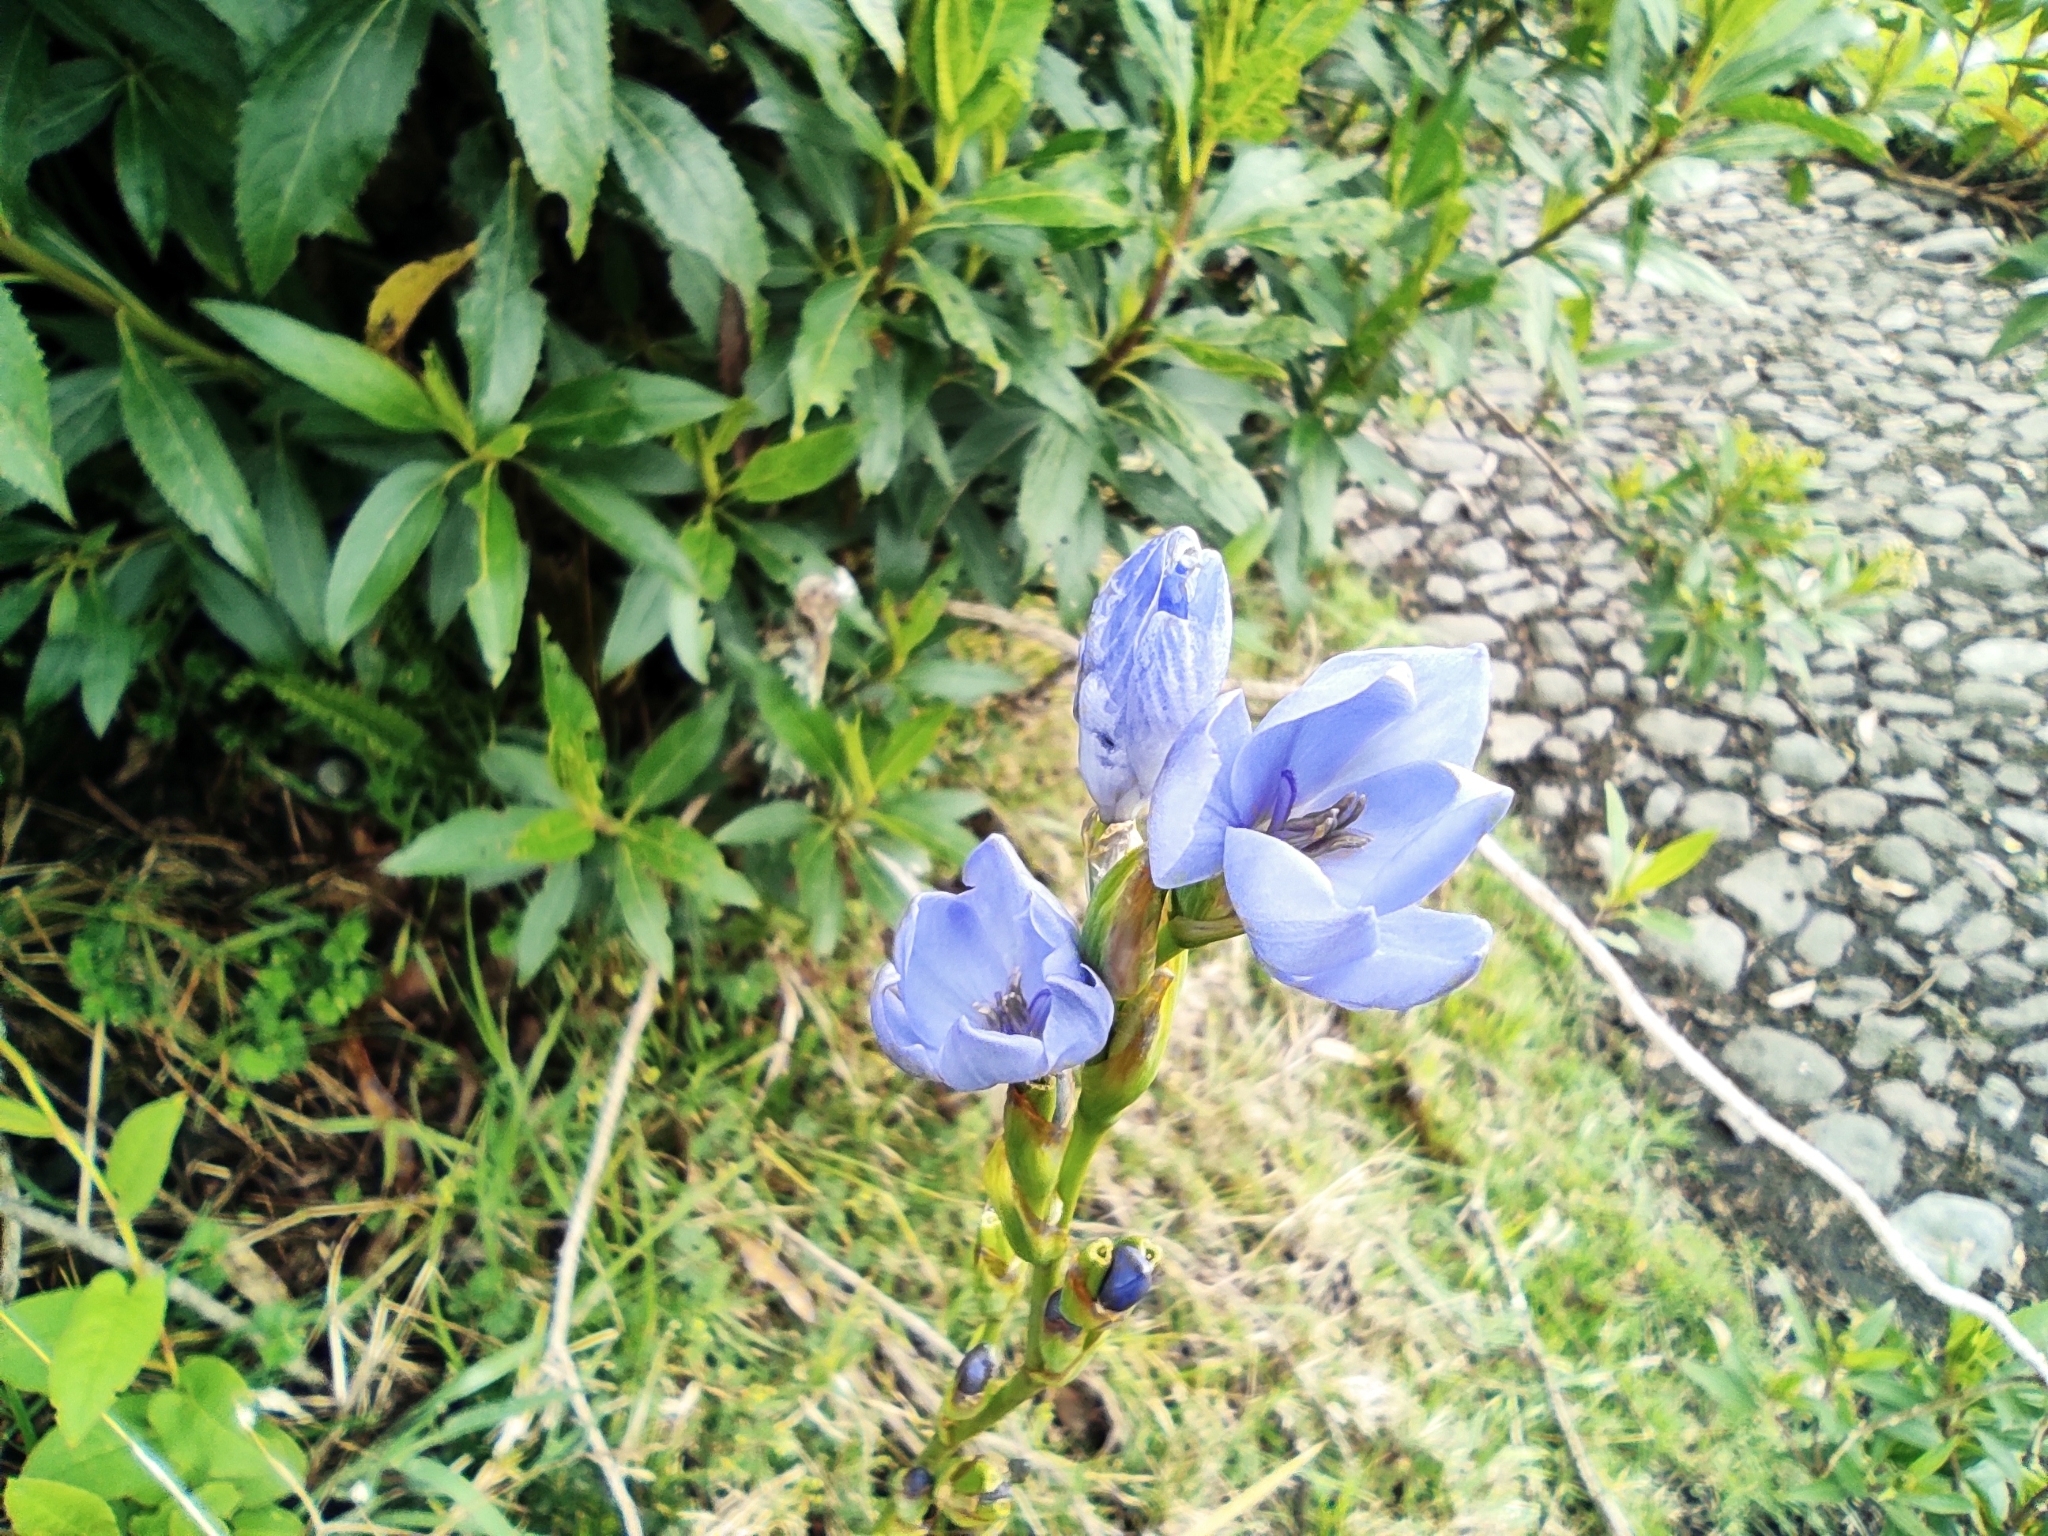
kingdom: Plantae
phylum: Tracheophyta
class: Liliopsida
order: Asparagales
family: Iridaceae
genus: Orthrosanthus
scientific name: Orthrosanthus chimboracensis
